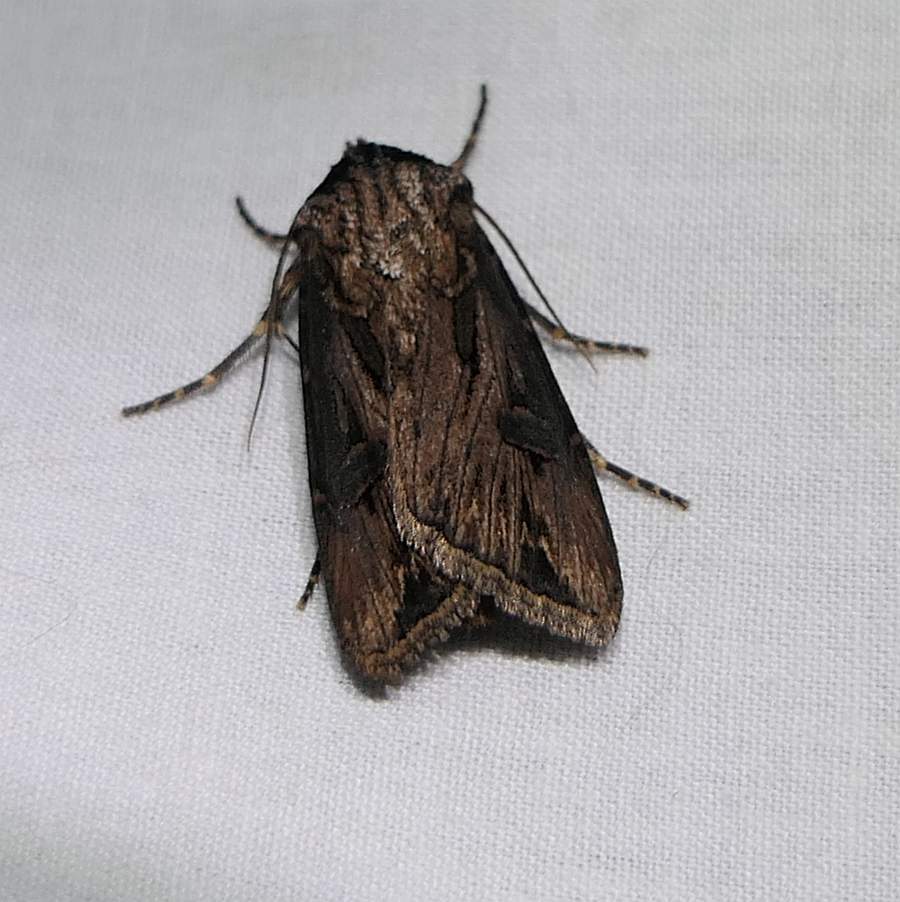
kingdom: Animalia
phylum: Arthropoda
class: Insecta
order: Lepidoptera
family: Noctuidae
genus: Agrotis
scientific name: Agrotis venerabilis
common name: Venerable dart
